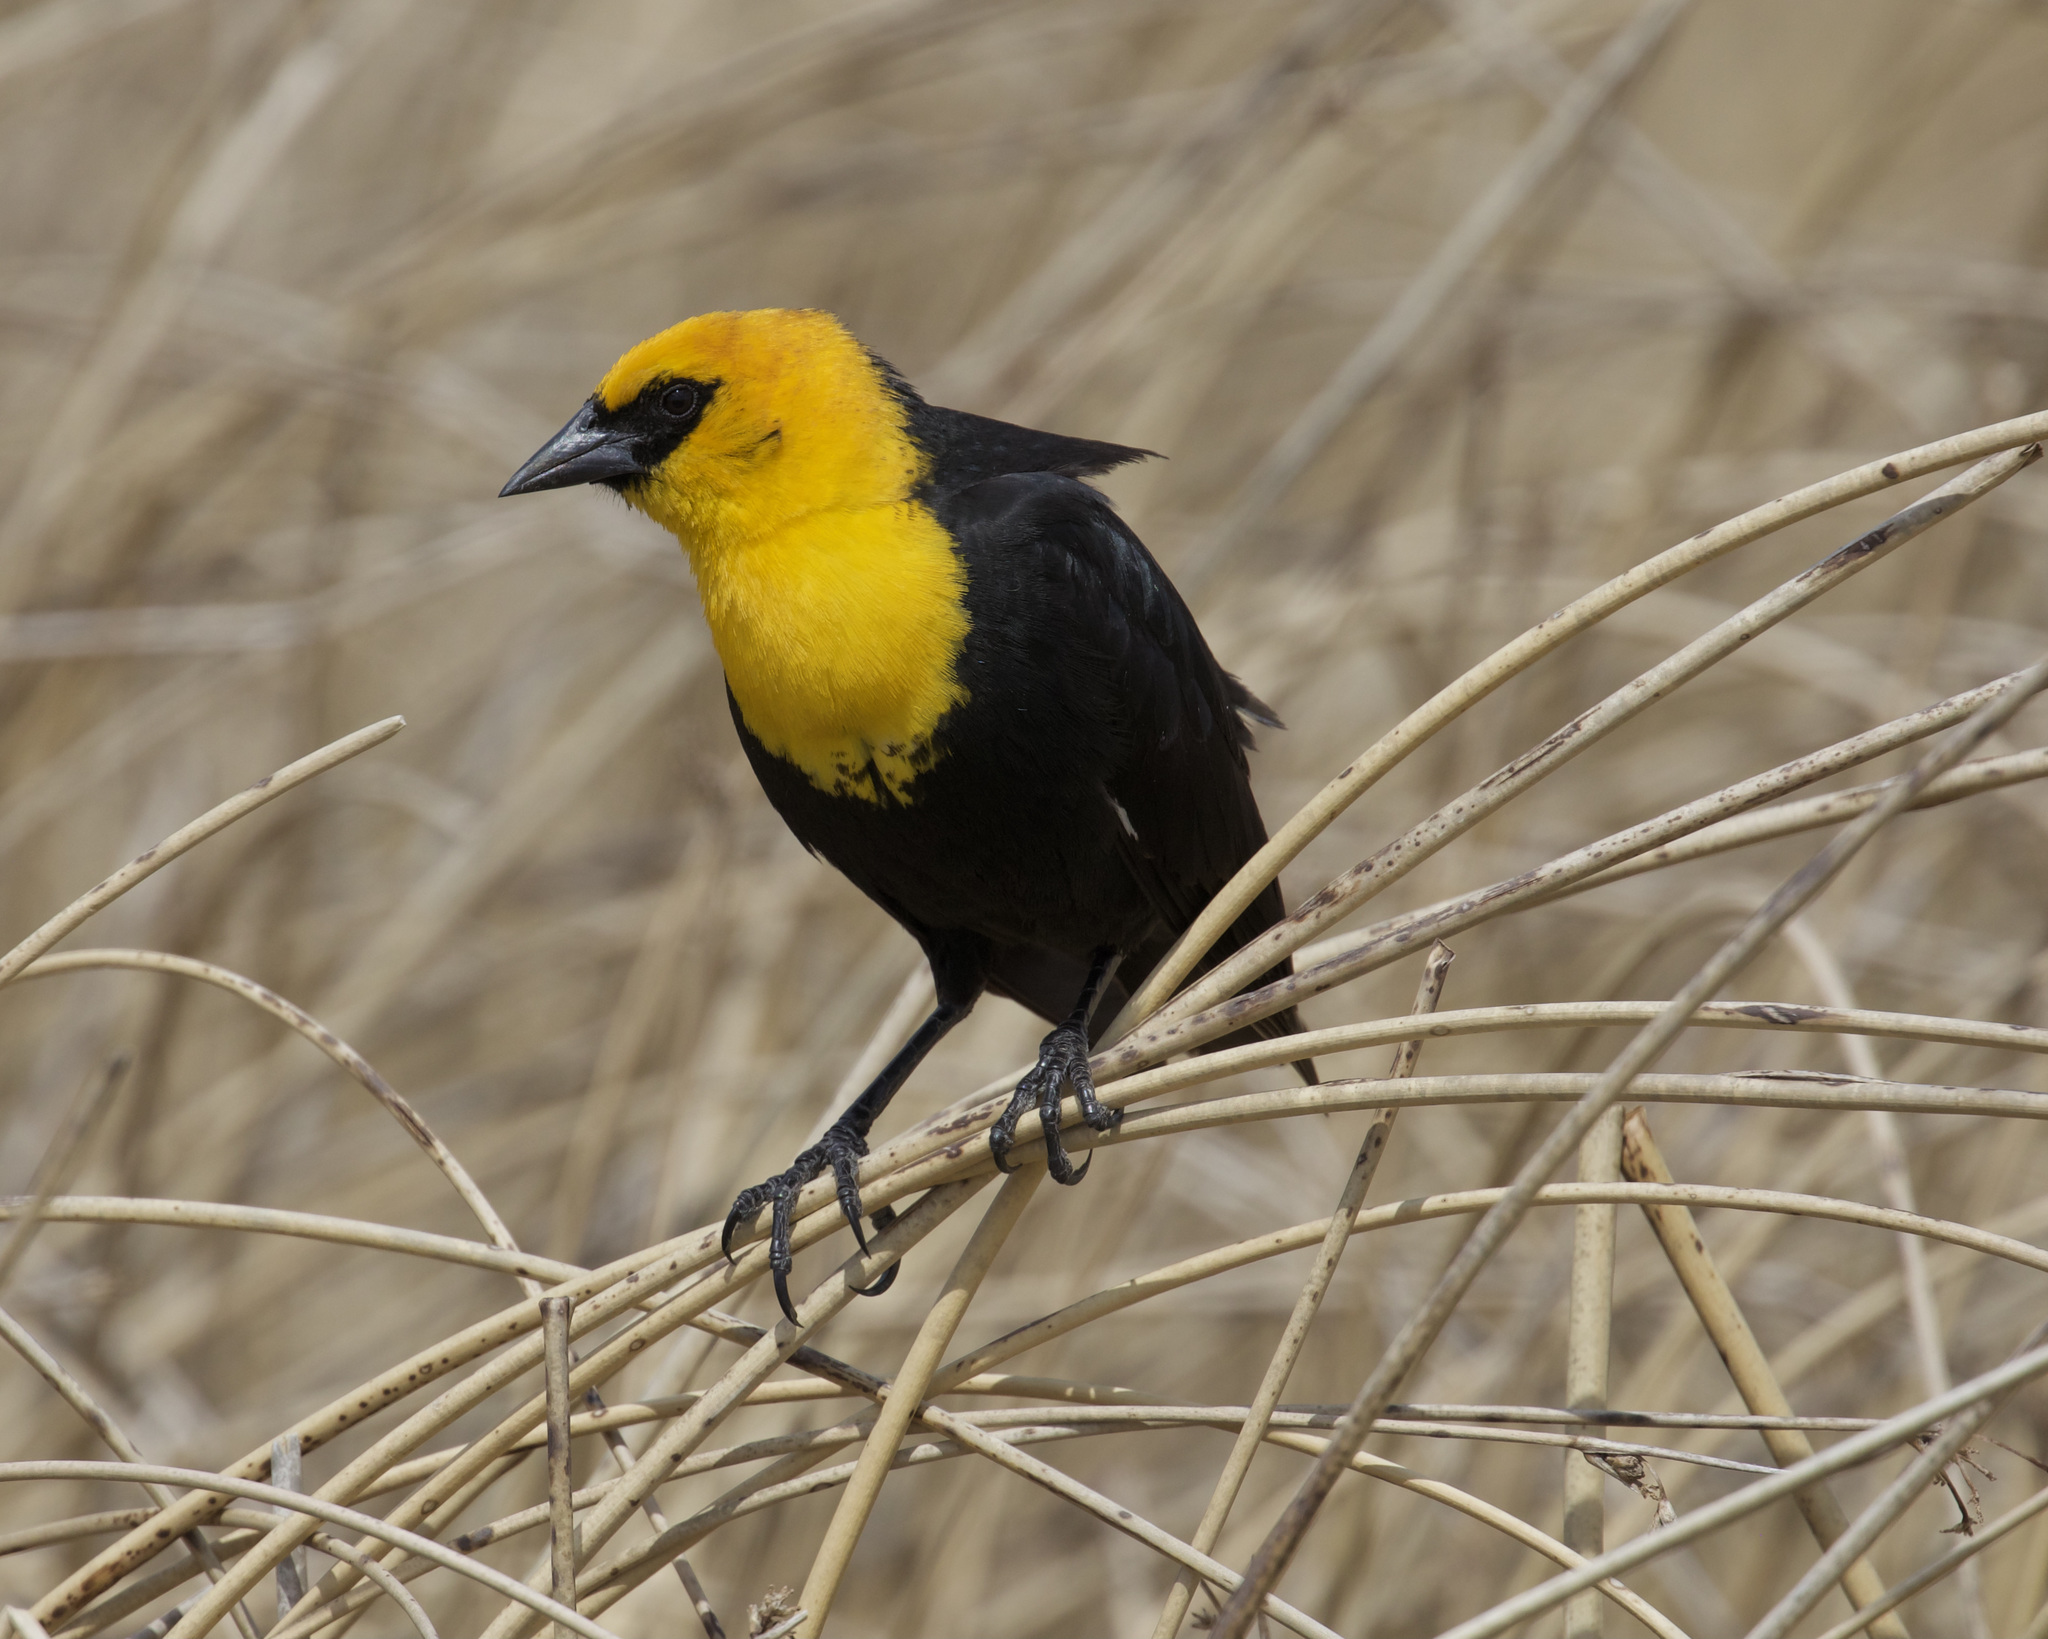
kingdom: Animalia
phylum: Chordata
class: Aves
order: Passeriformes
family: Icteridae
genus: Xanthocephalus
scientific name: Xanthocephalus xanthocephalus
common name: Yellow-headed blackbird
